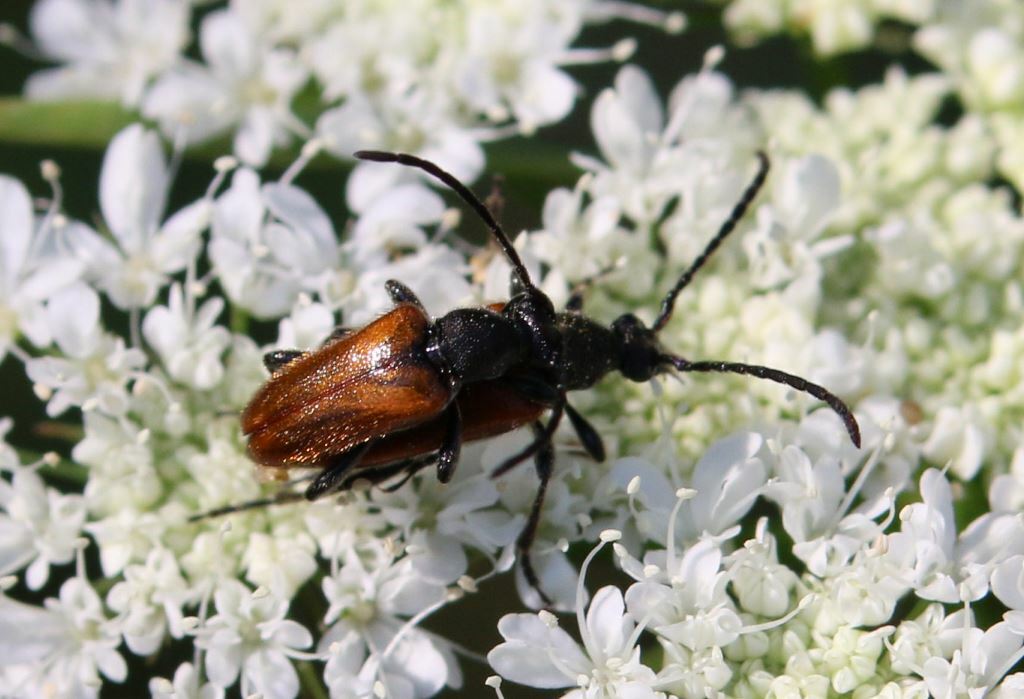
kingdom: Animalia
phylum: Arthropoda
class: Insecta
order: Coleoptera
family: Cerambycidae
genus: Pseudovadonia
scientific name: Pseudovadonia livida
